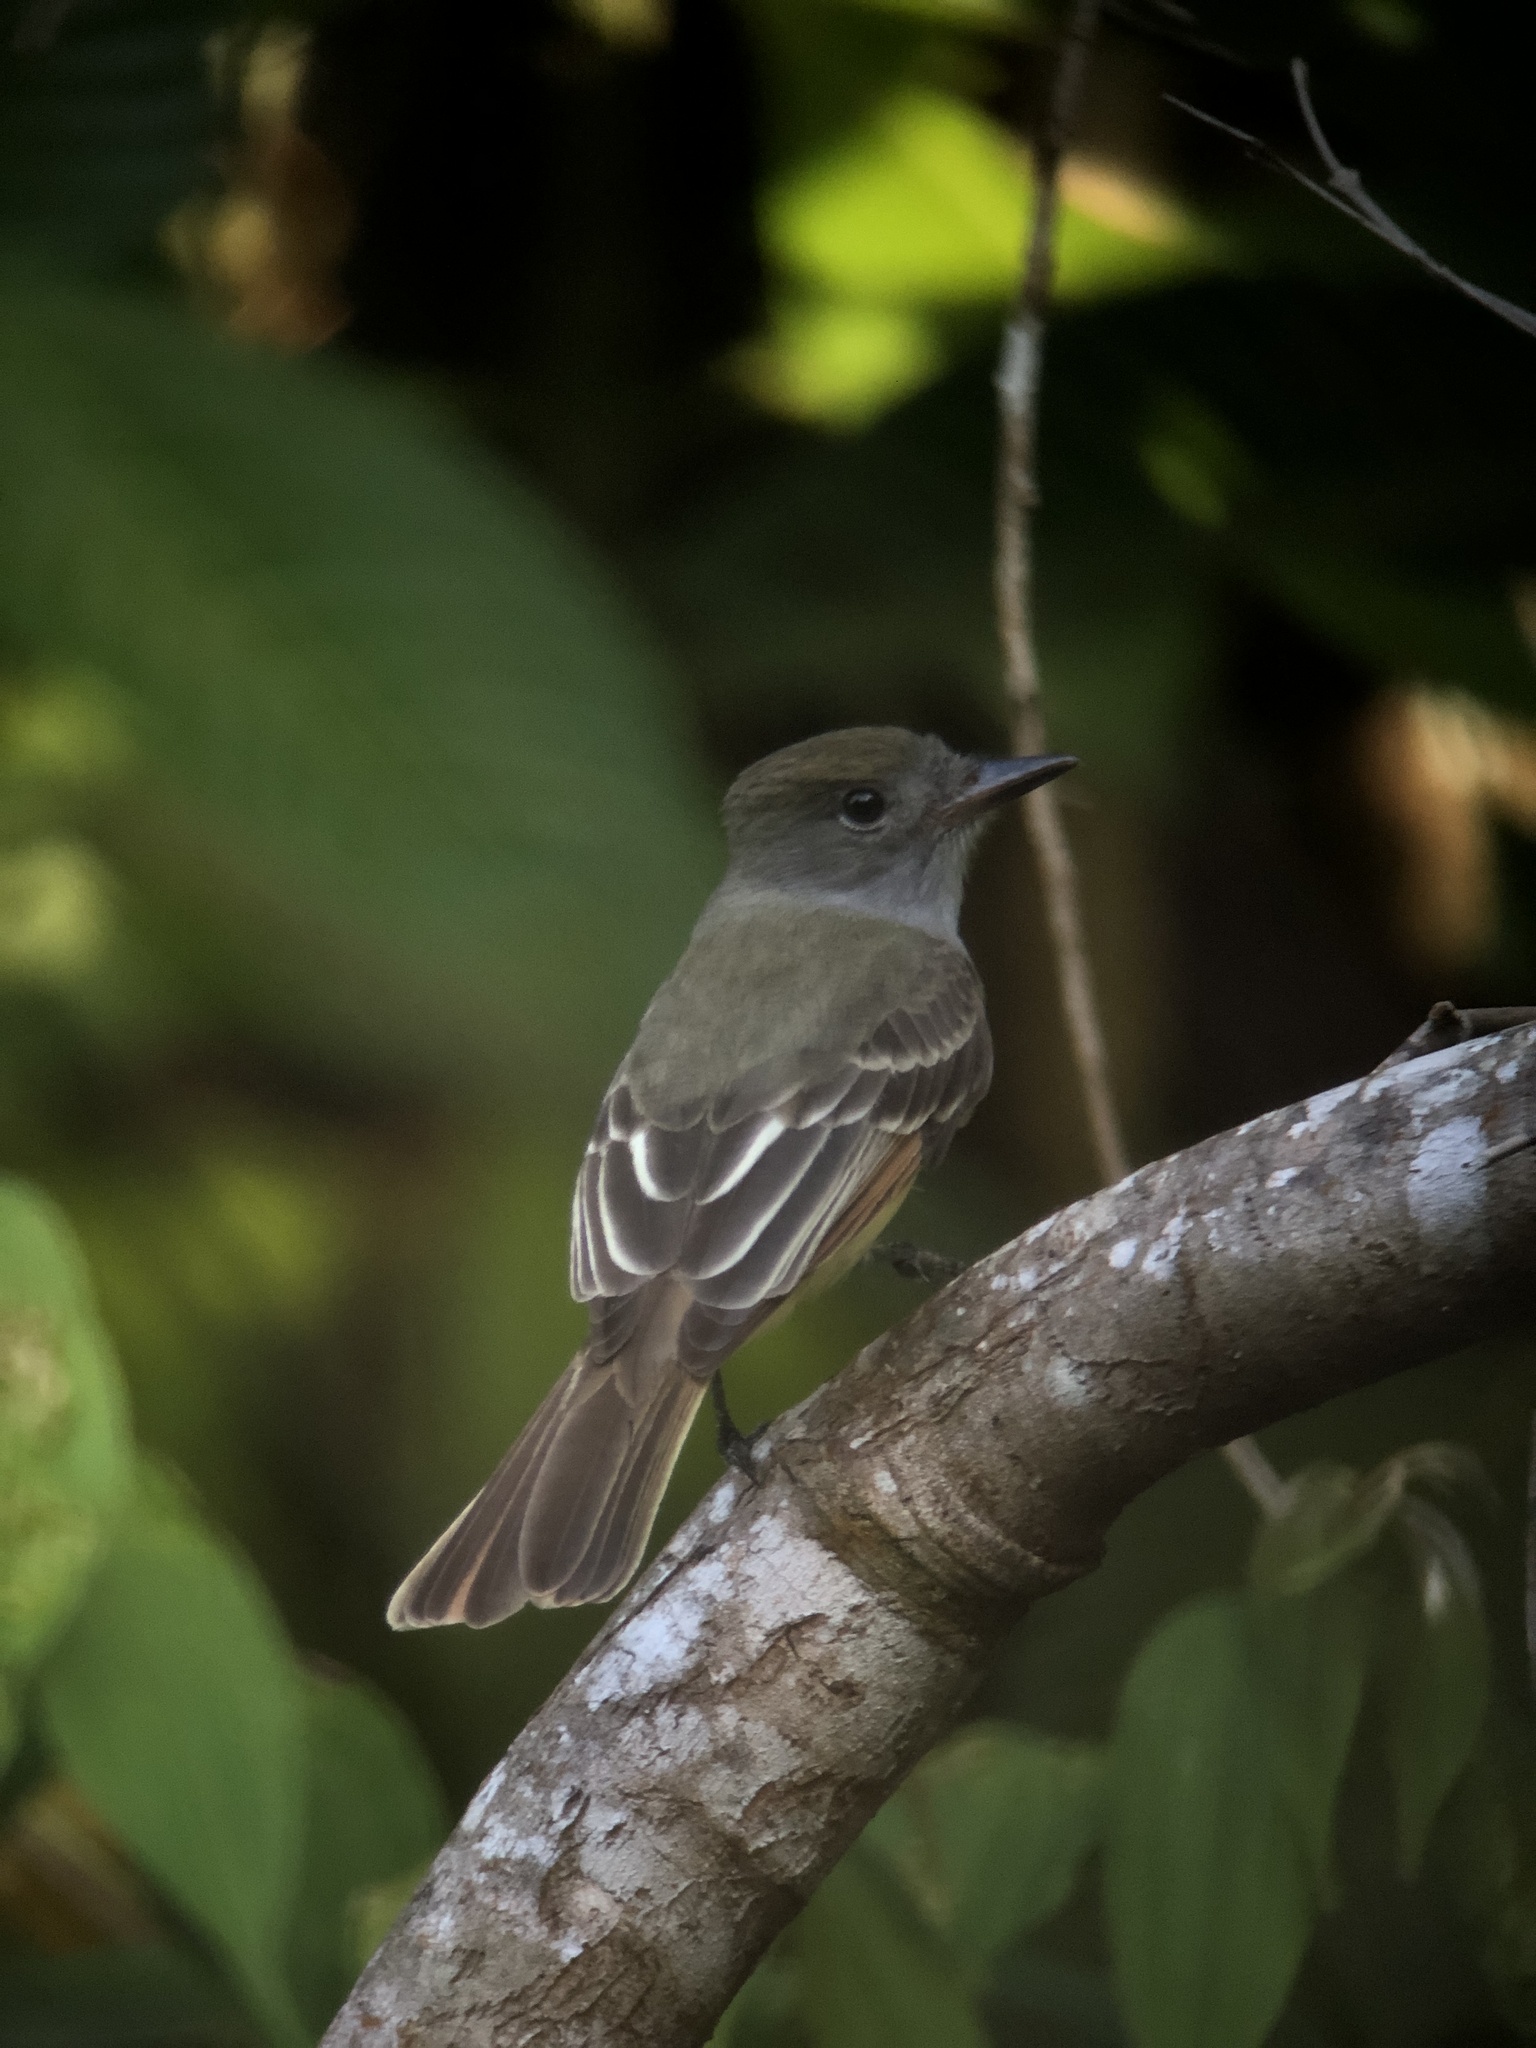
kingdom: Animalia
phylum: Chordata
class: Aves
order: Passeriformes
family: Tyrannidae
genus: Myiarchus
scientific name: Myiarchus crinitus
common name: Great crested flycatcher
